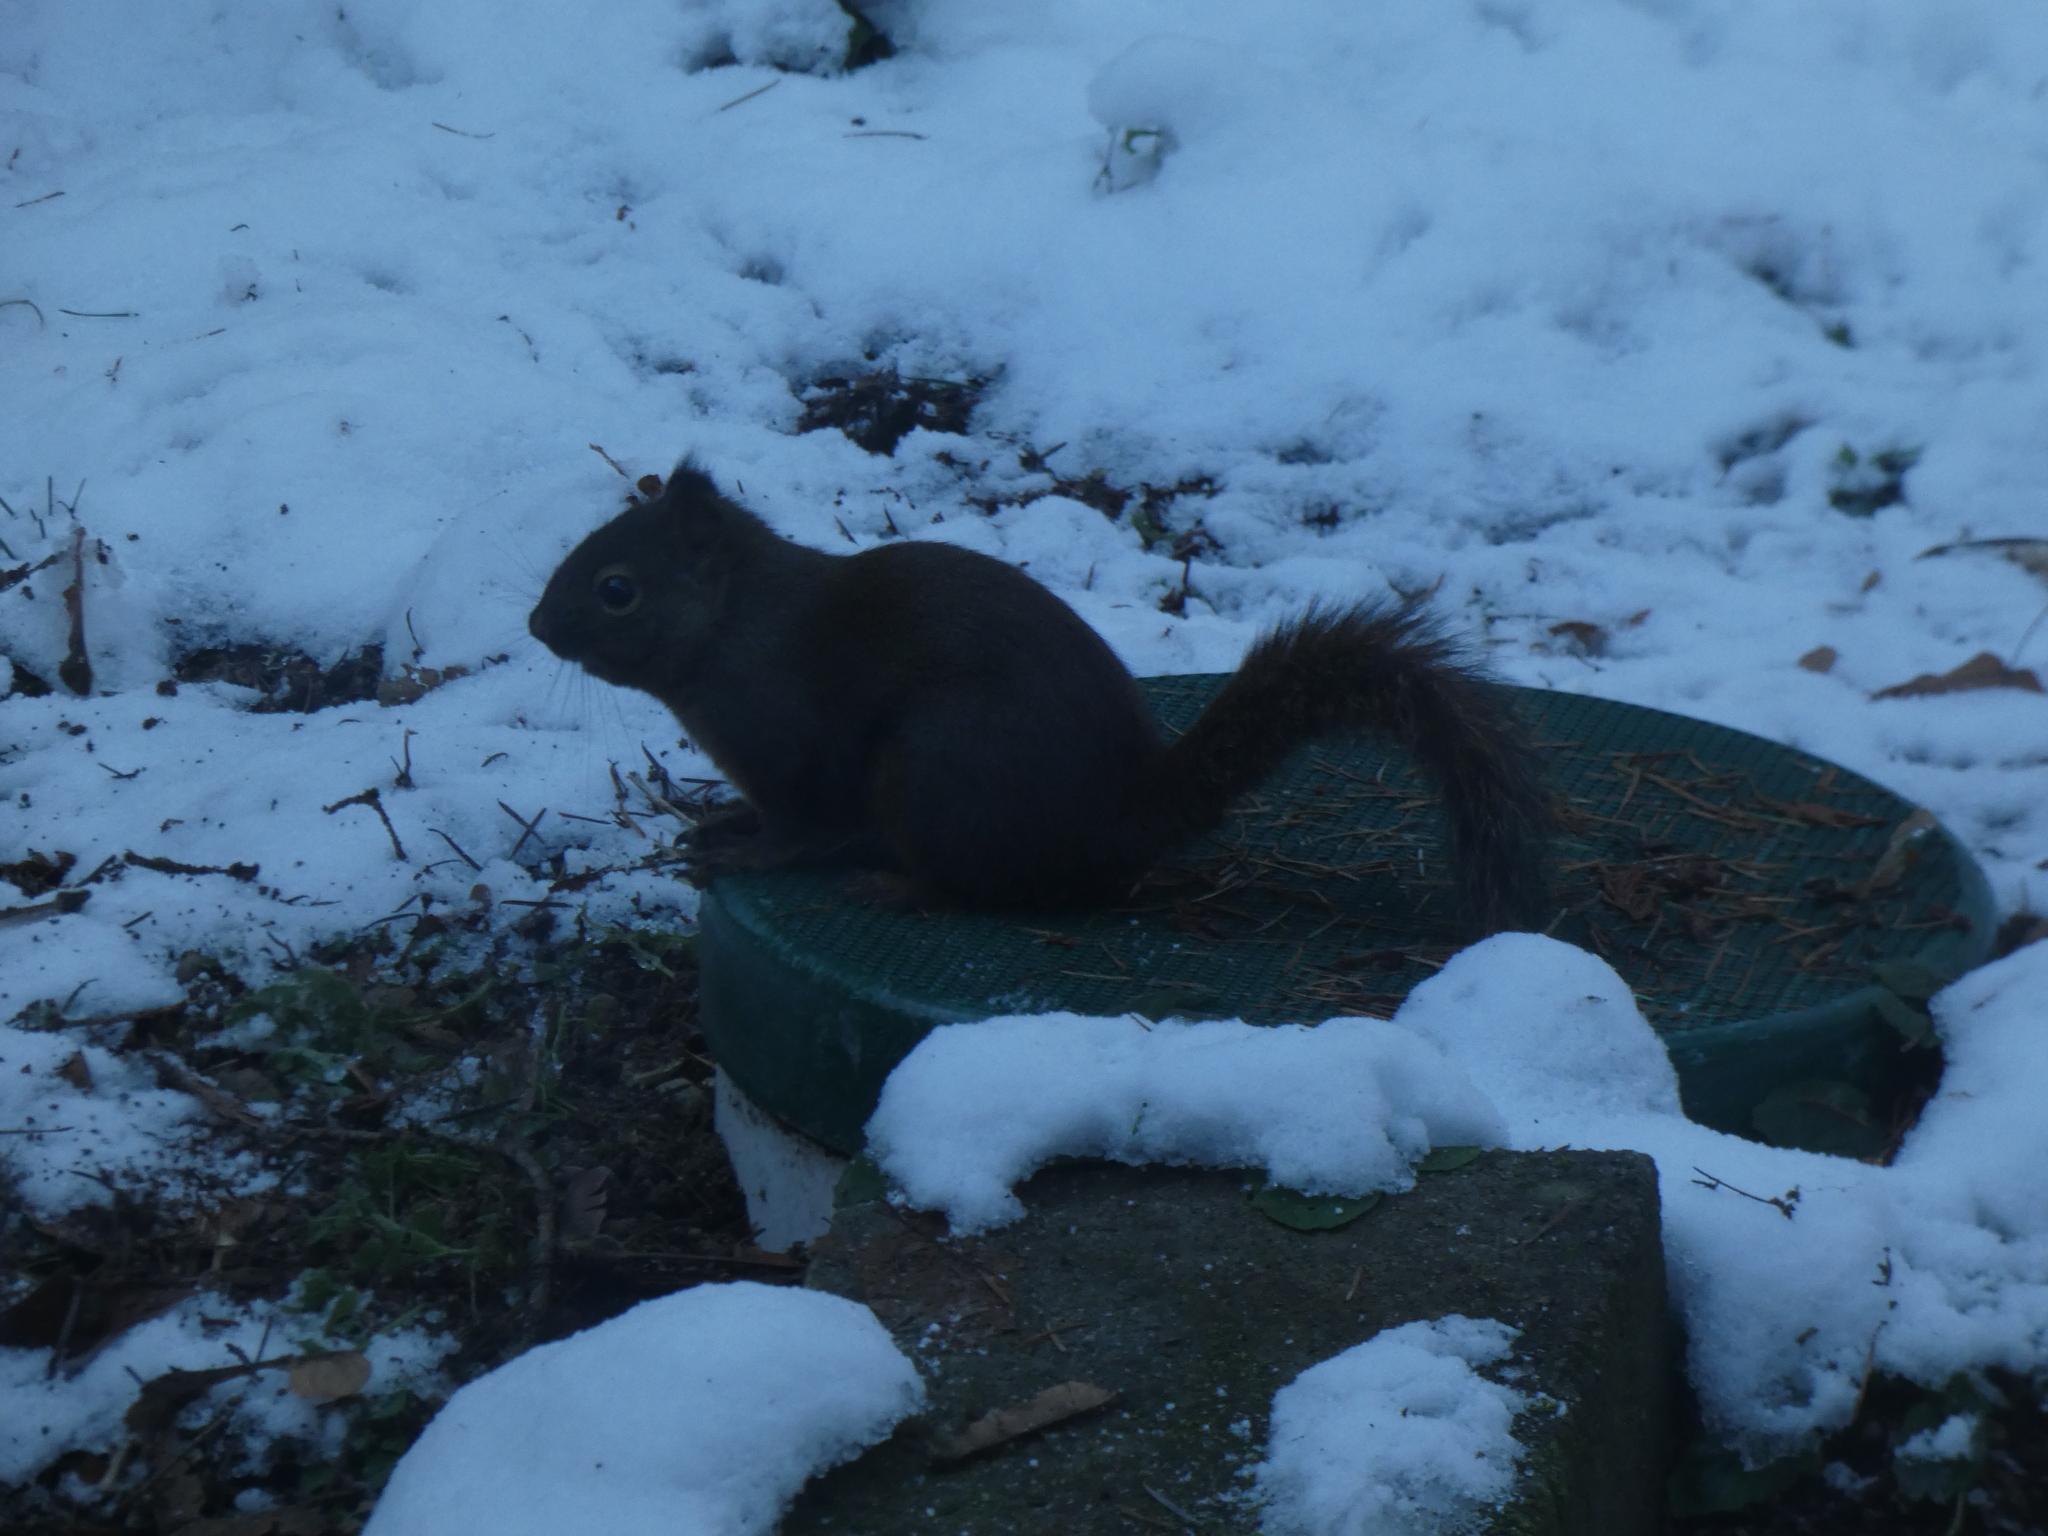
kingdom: Animalia
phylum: Chordata
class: Mammalia
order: Rodentia
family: Sciuridae
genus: Tamiasciurus
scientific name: Tamiasciurus douglasii
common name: Douglas's squirrel
